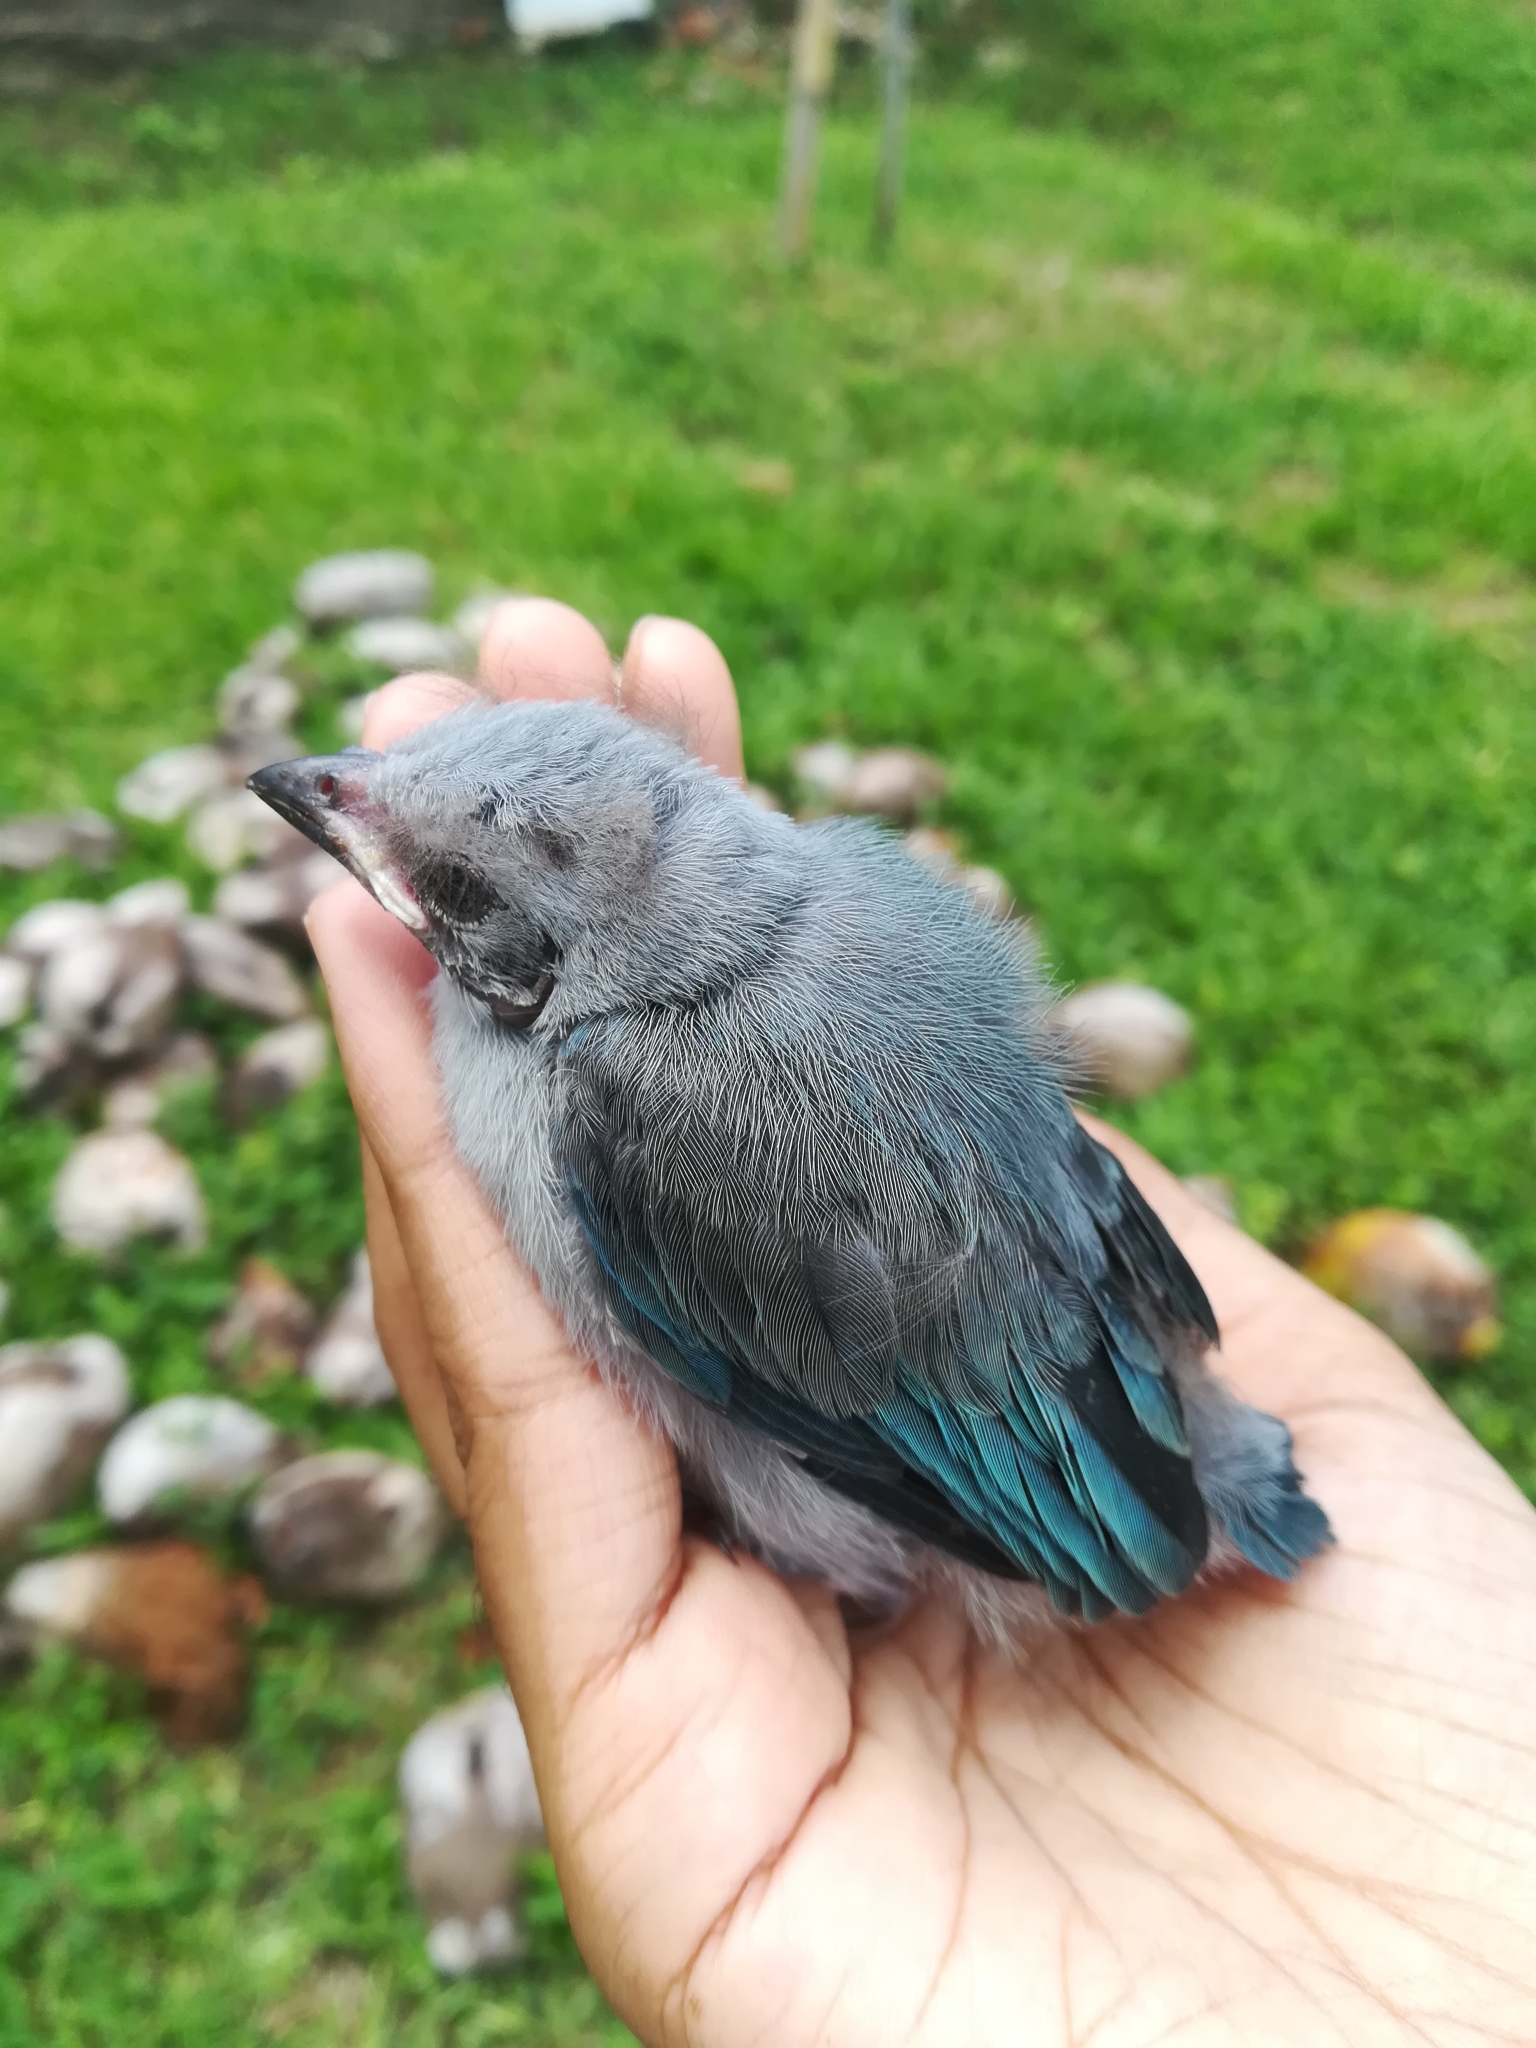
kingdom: Animalia
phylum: Chordata
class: Aves
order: Passeriformes
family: Thraupidae
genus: Thraupis
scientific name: Thraupis episcopus
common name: Blue-grey tanager
